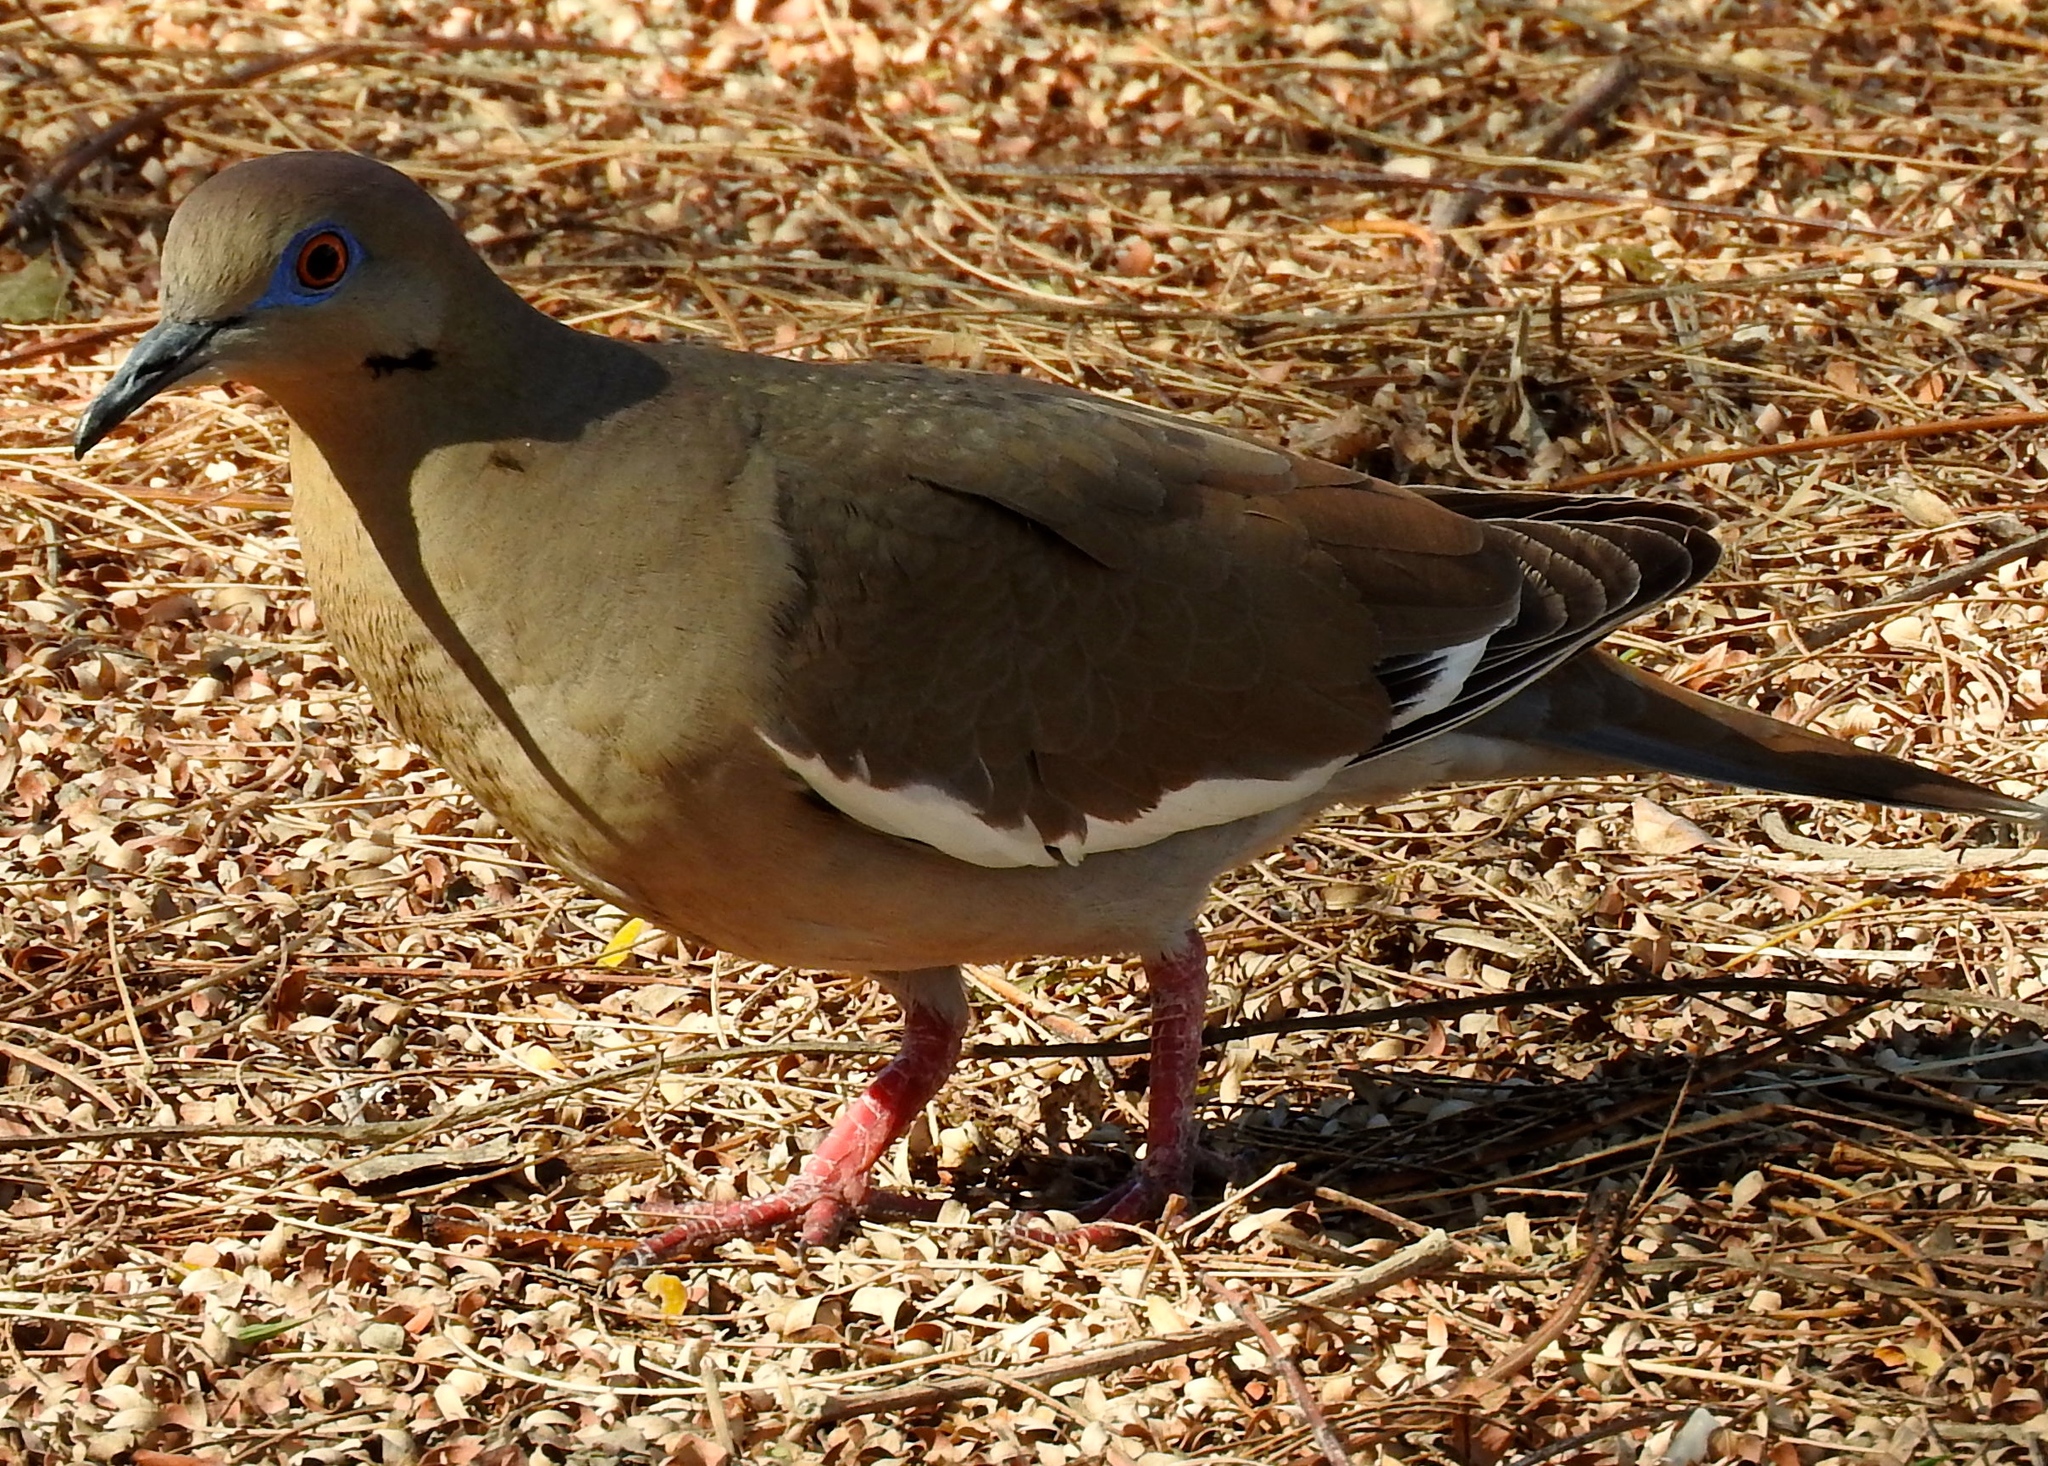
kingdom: Animalia
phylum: Chordata
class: Aves
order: Columbiformes
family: Columbidae
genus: Zenaida
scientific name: Zenaida asiatica
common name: White-winged dove
